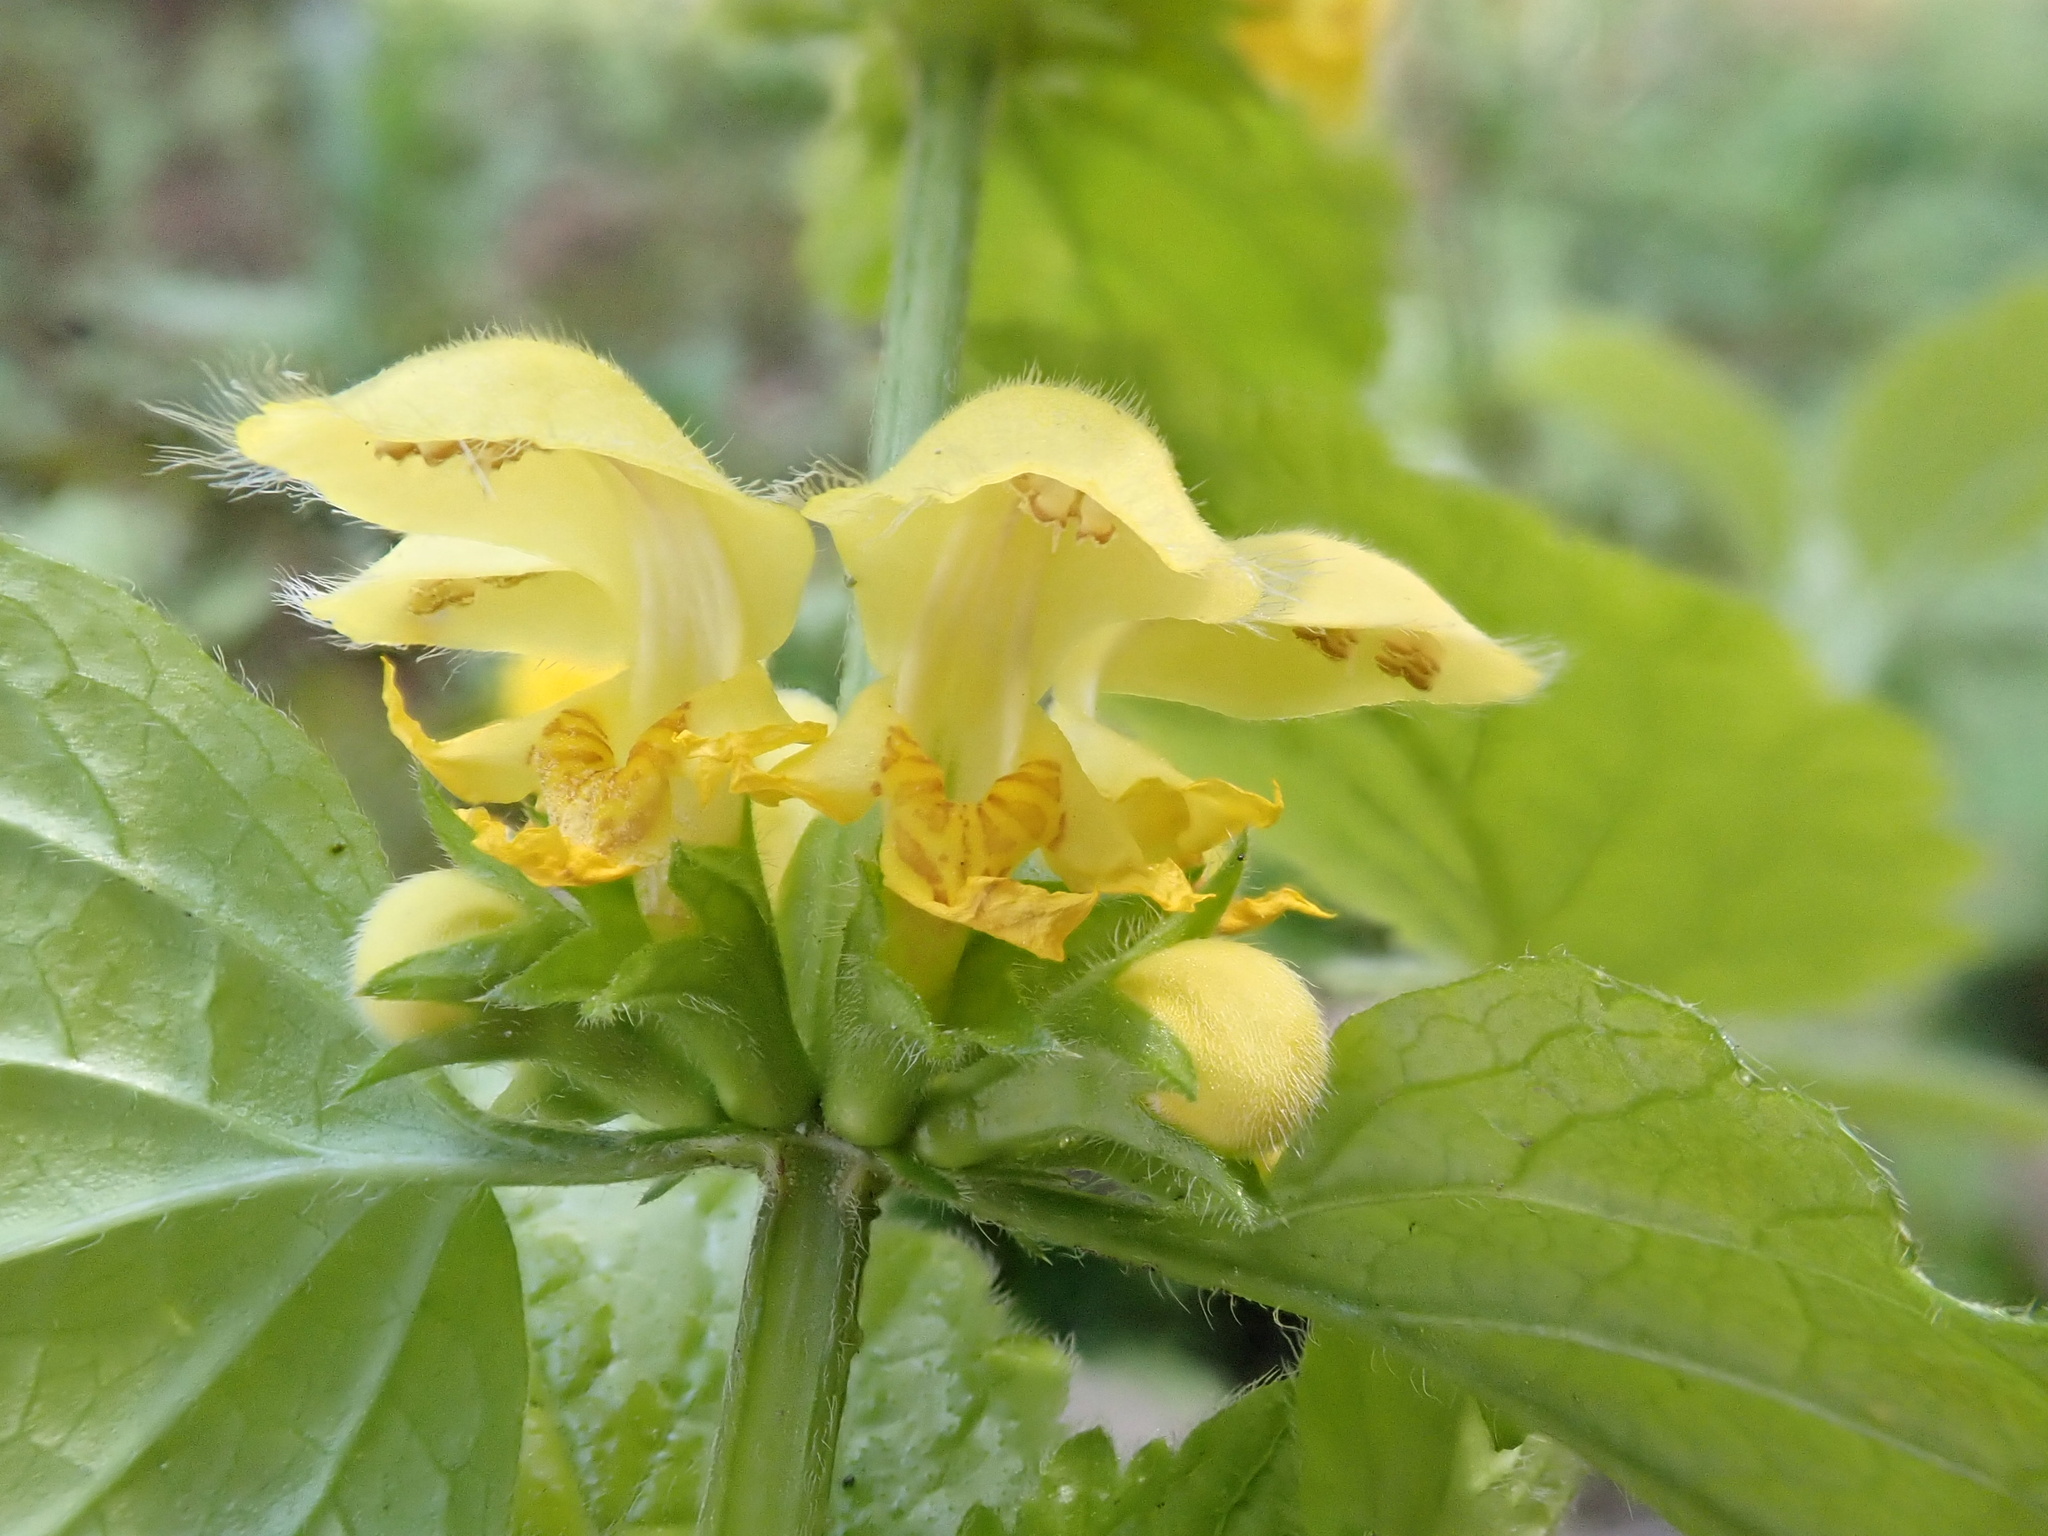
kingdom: Plantae
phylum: Tracheophyta
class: Magnoliopsida
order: Lamiales
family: Lamiaceae
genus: Lamium
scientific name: Lamium galeobdolon
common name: Yellow archangel
